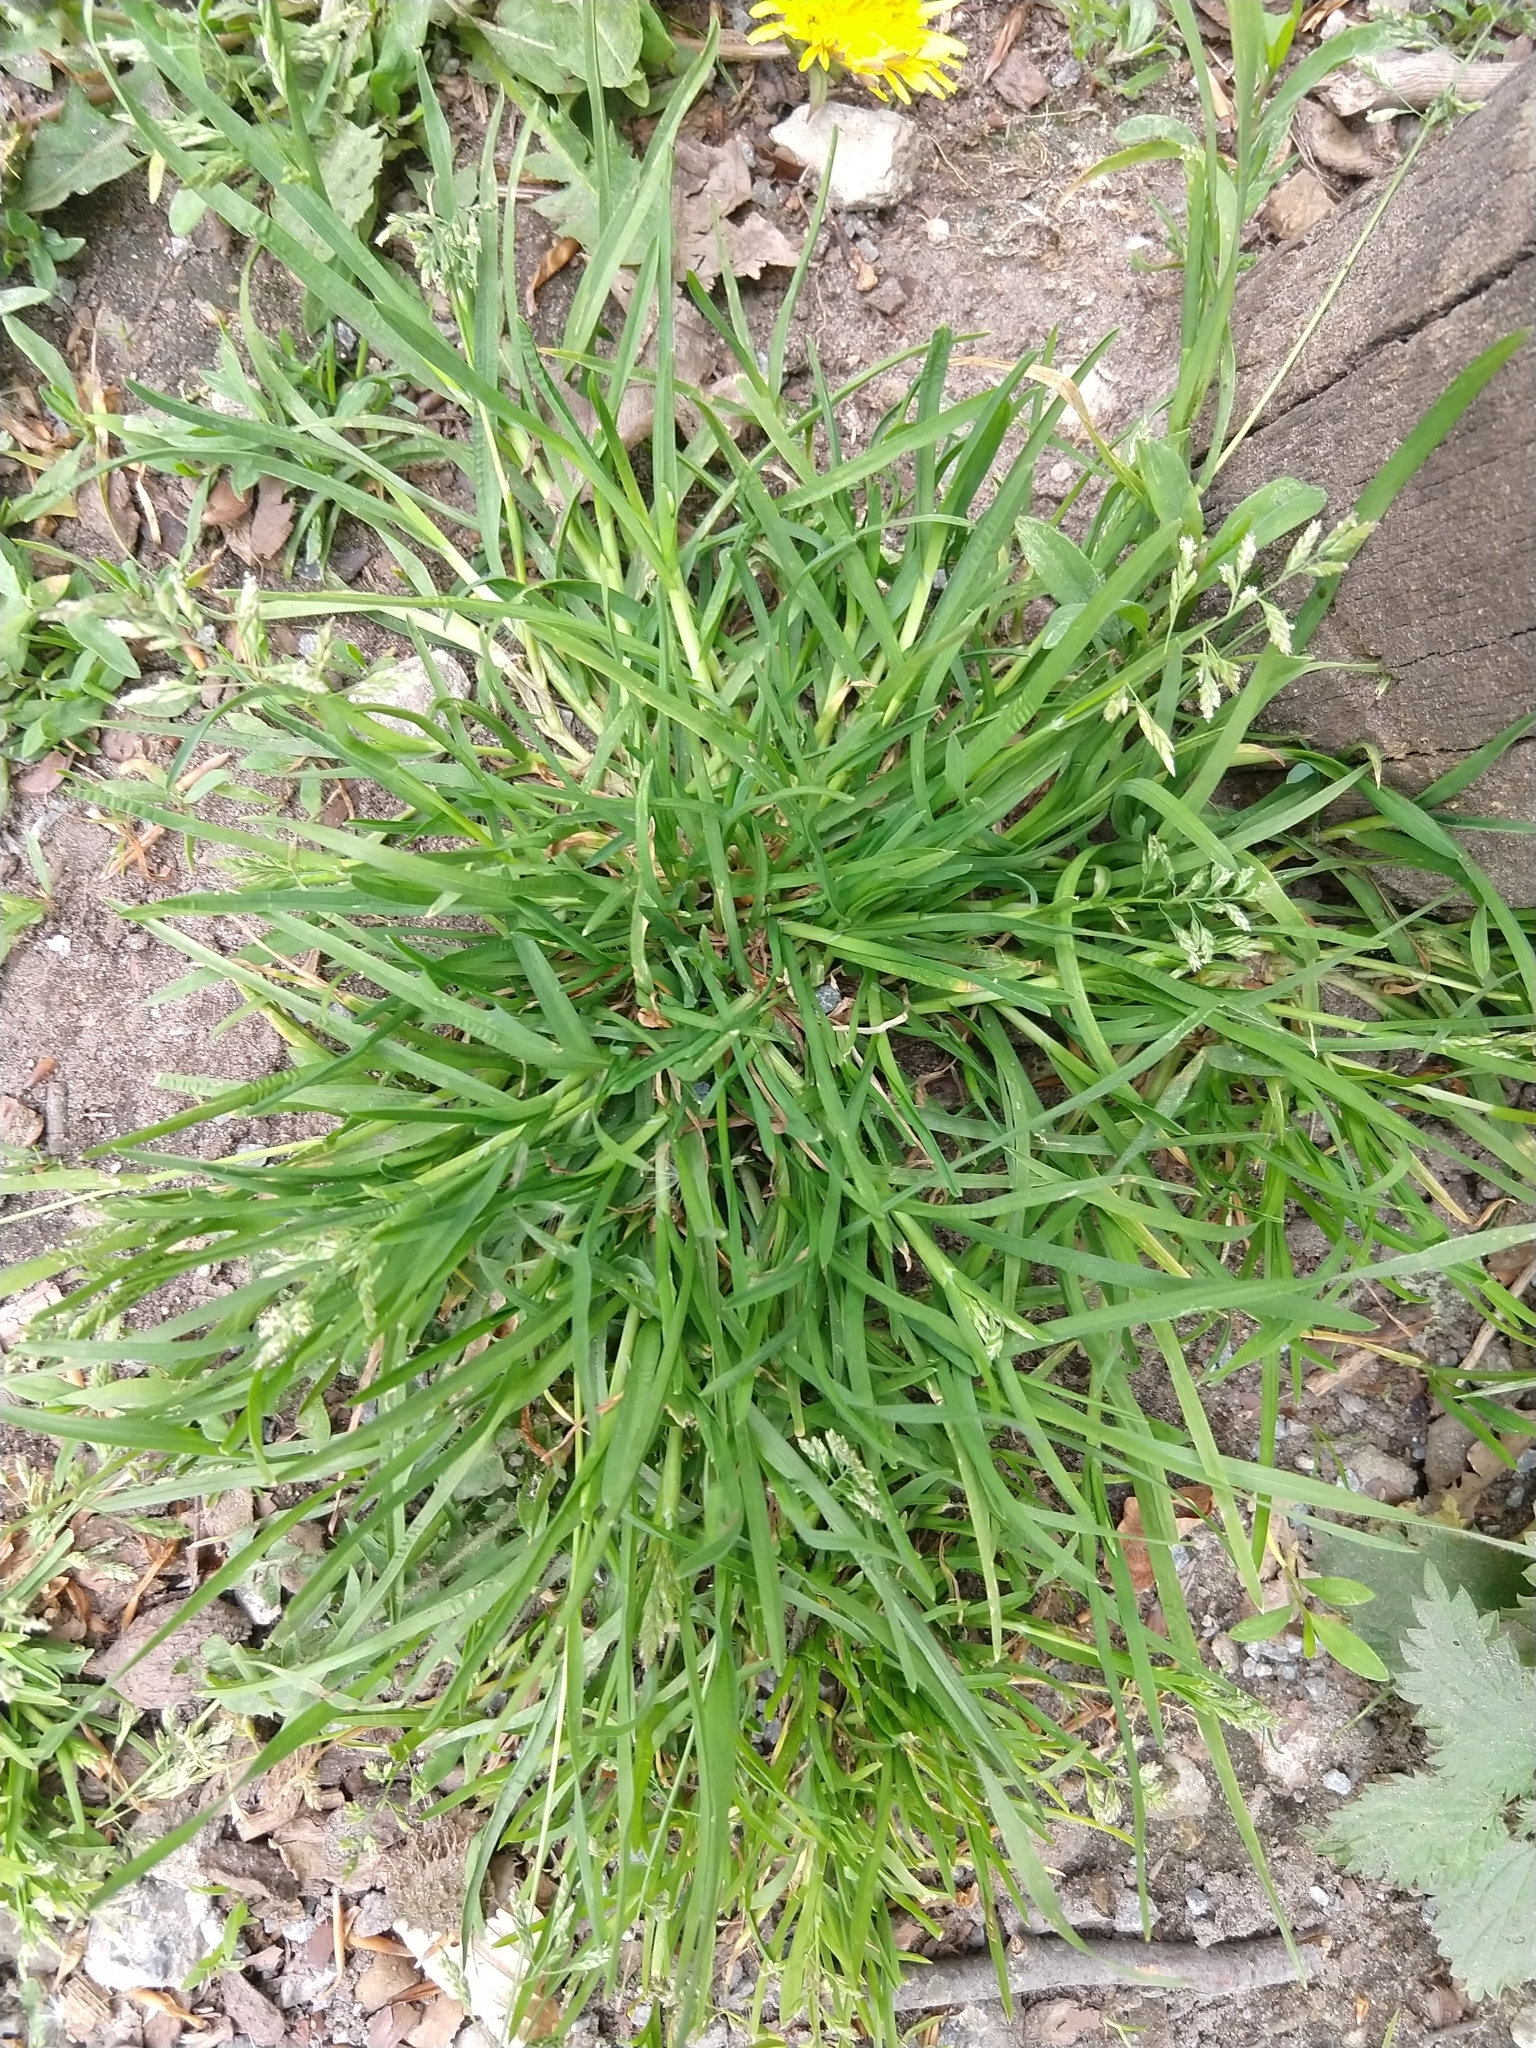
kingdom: Plantae
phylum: Tracheophyta
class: Liliopsida
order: Poales
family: Poaceae
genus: Poa
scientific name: Poa annua
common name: Annual bluegrass
